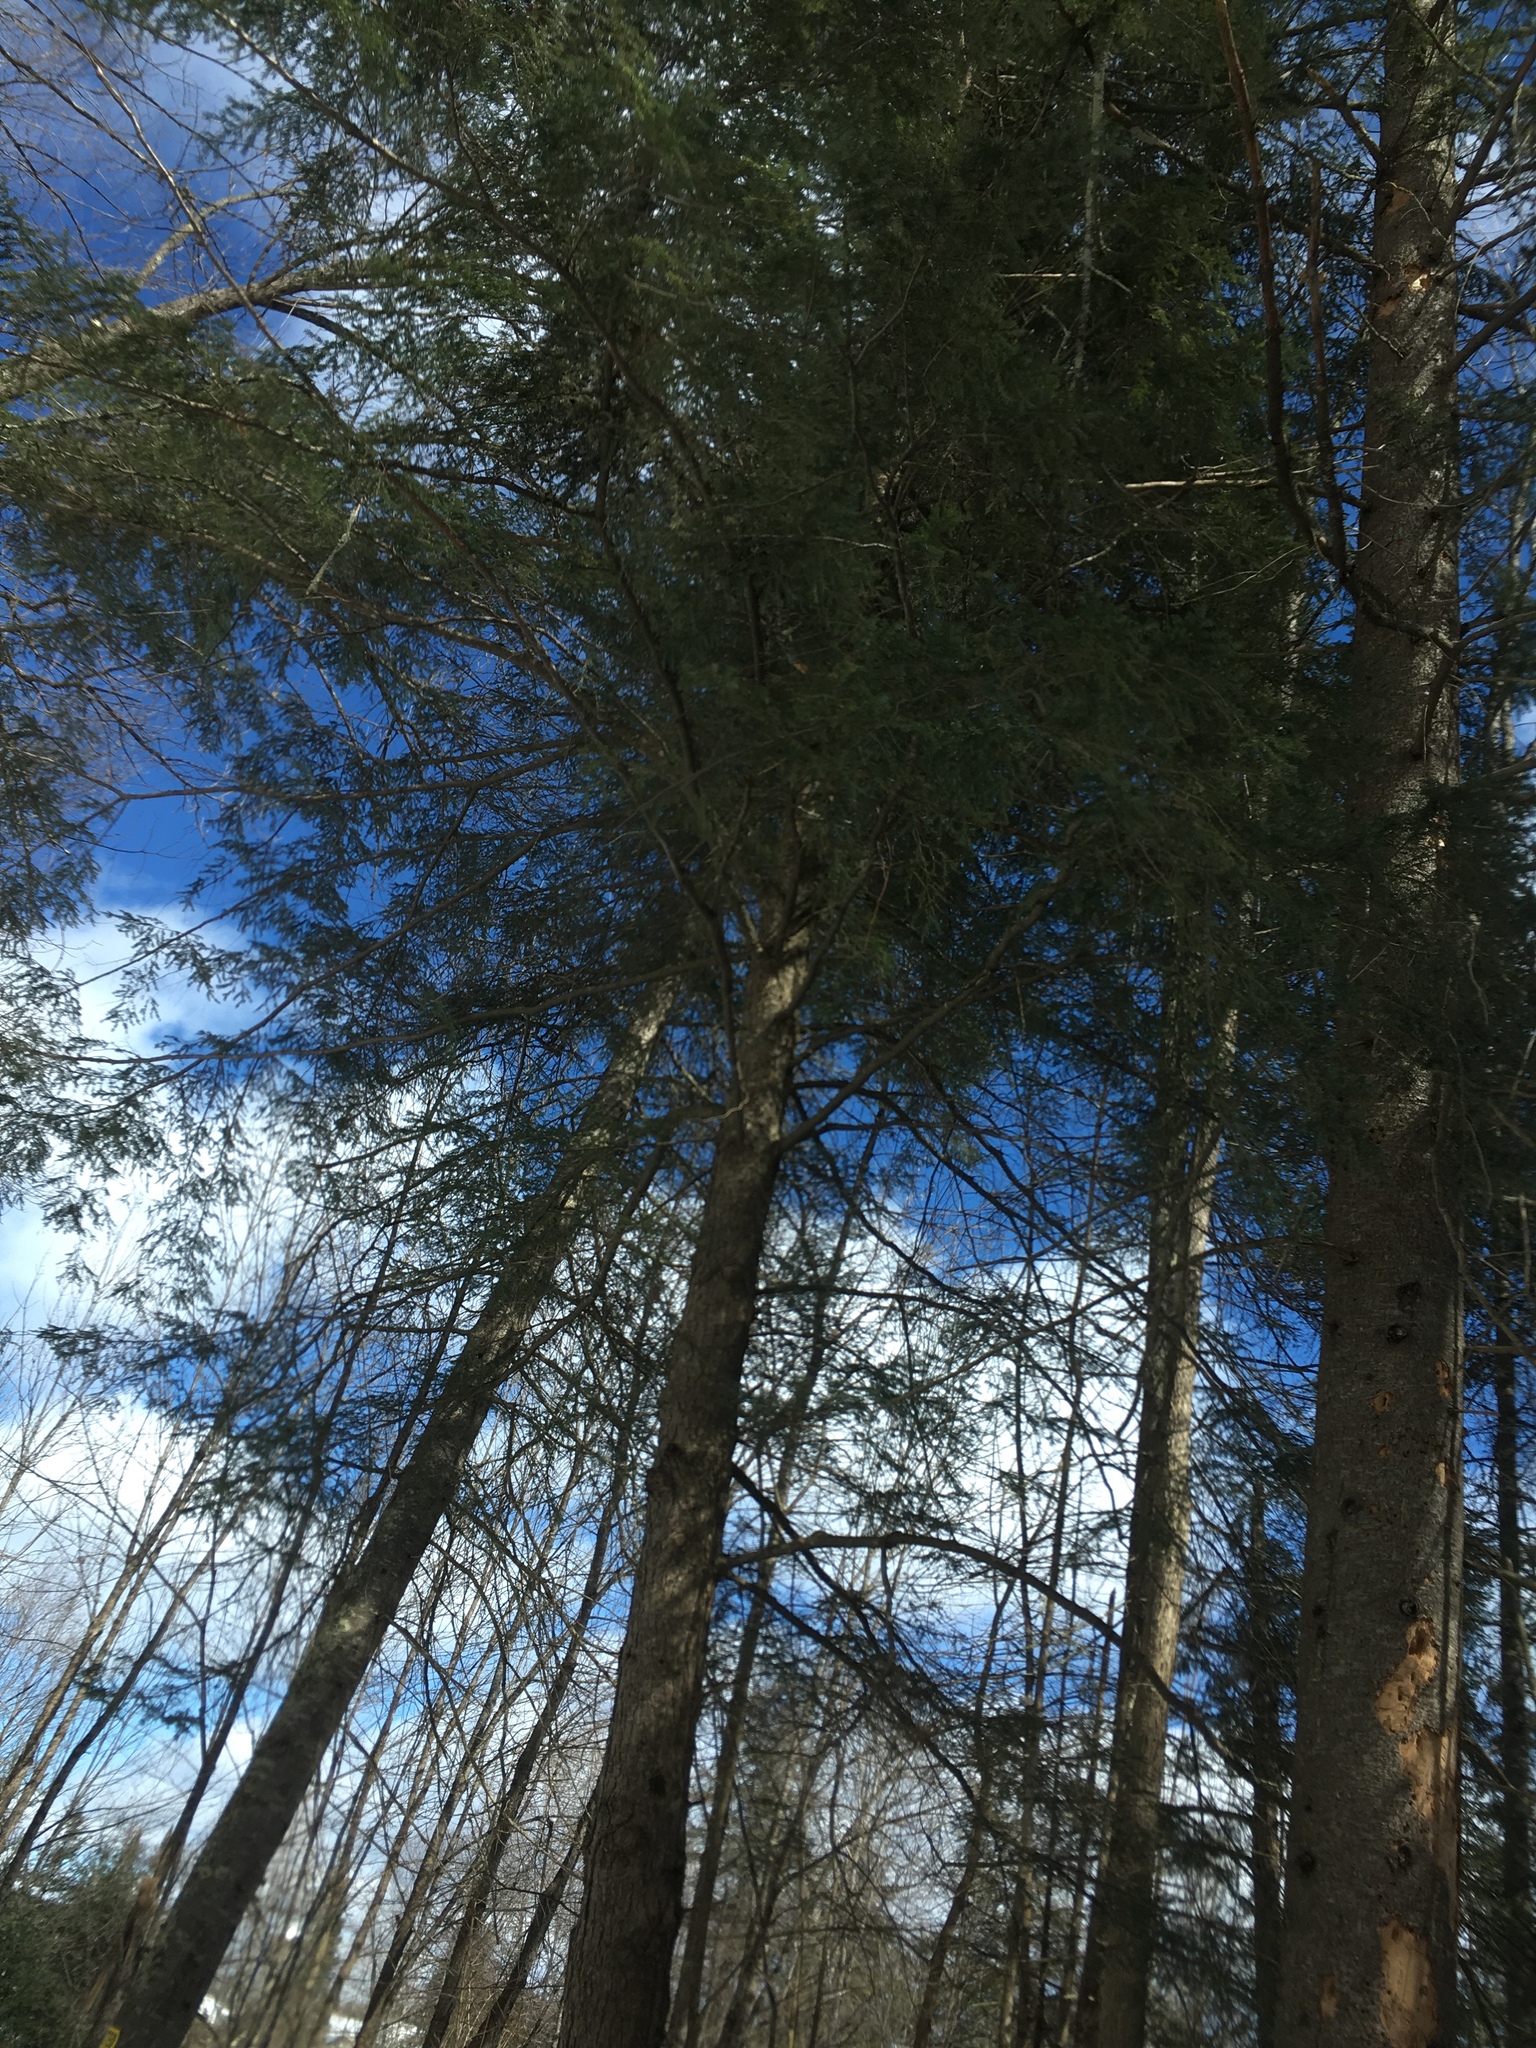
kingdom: Plantae
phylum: Tracheophyta
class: Pinopsida
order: Pinales
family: Pinaceae
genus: Tsuga
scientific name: Tsuga canadensis
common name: Eastern hemlock
